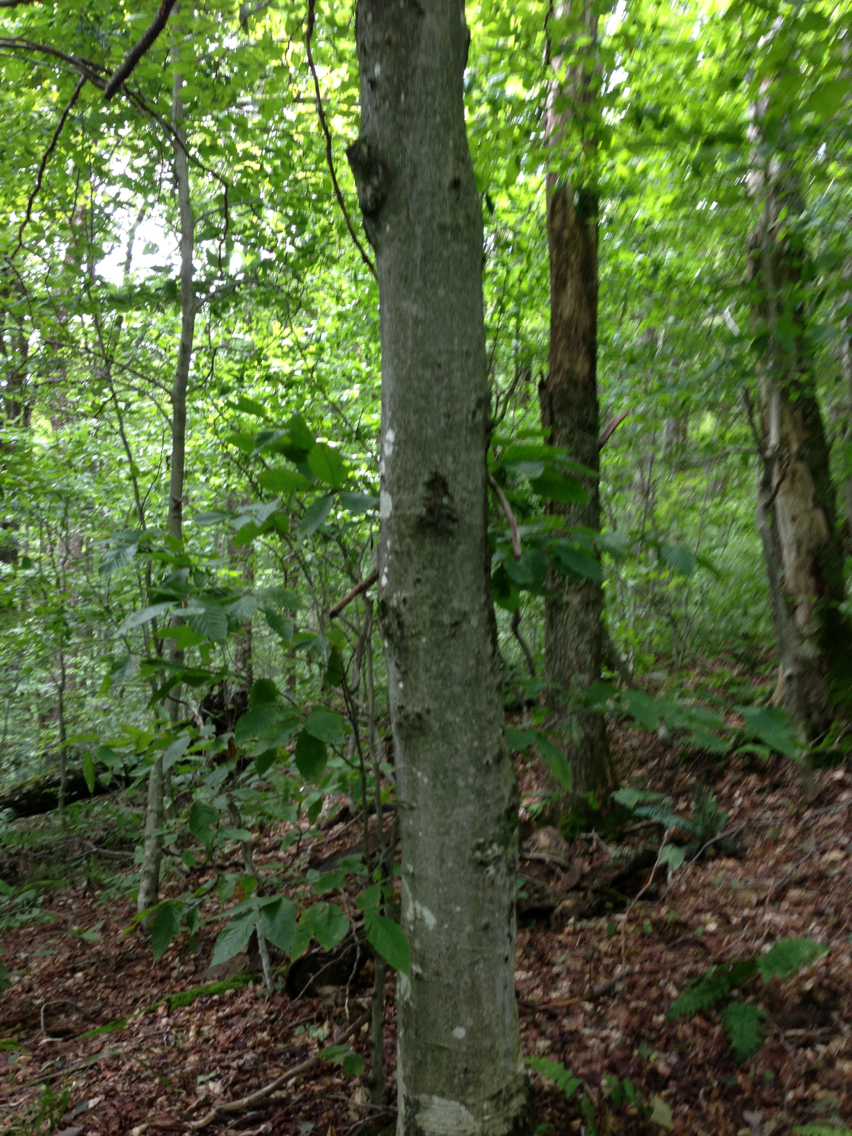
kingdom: Plantae
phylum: Tracheophyta
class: Magnoliopsida
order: Fagales
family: Fagaceae
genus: Fagus
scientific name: Fagus grandifolia
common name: American beech
